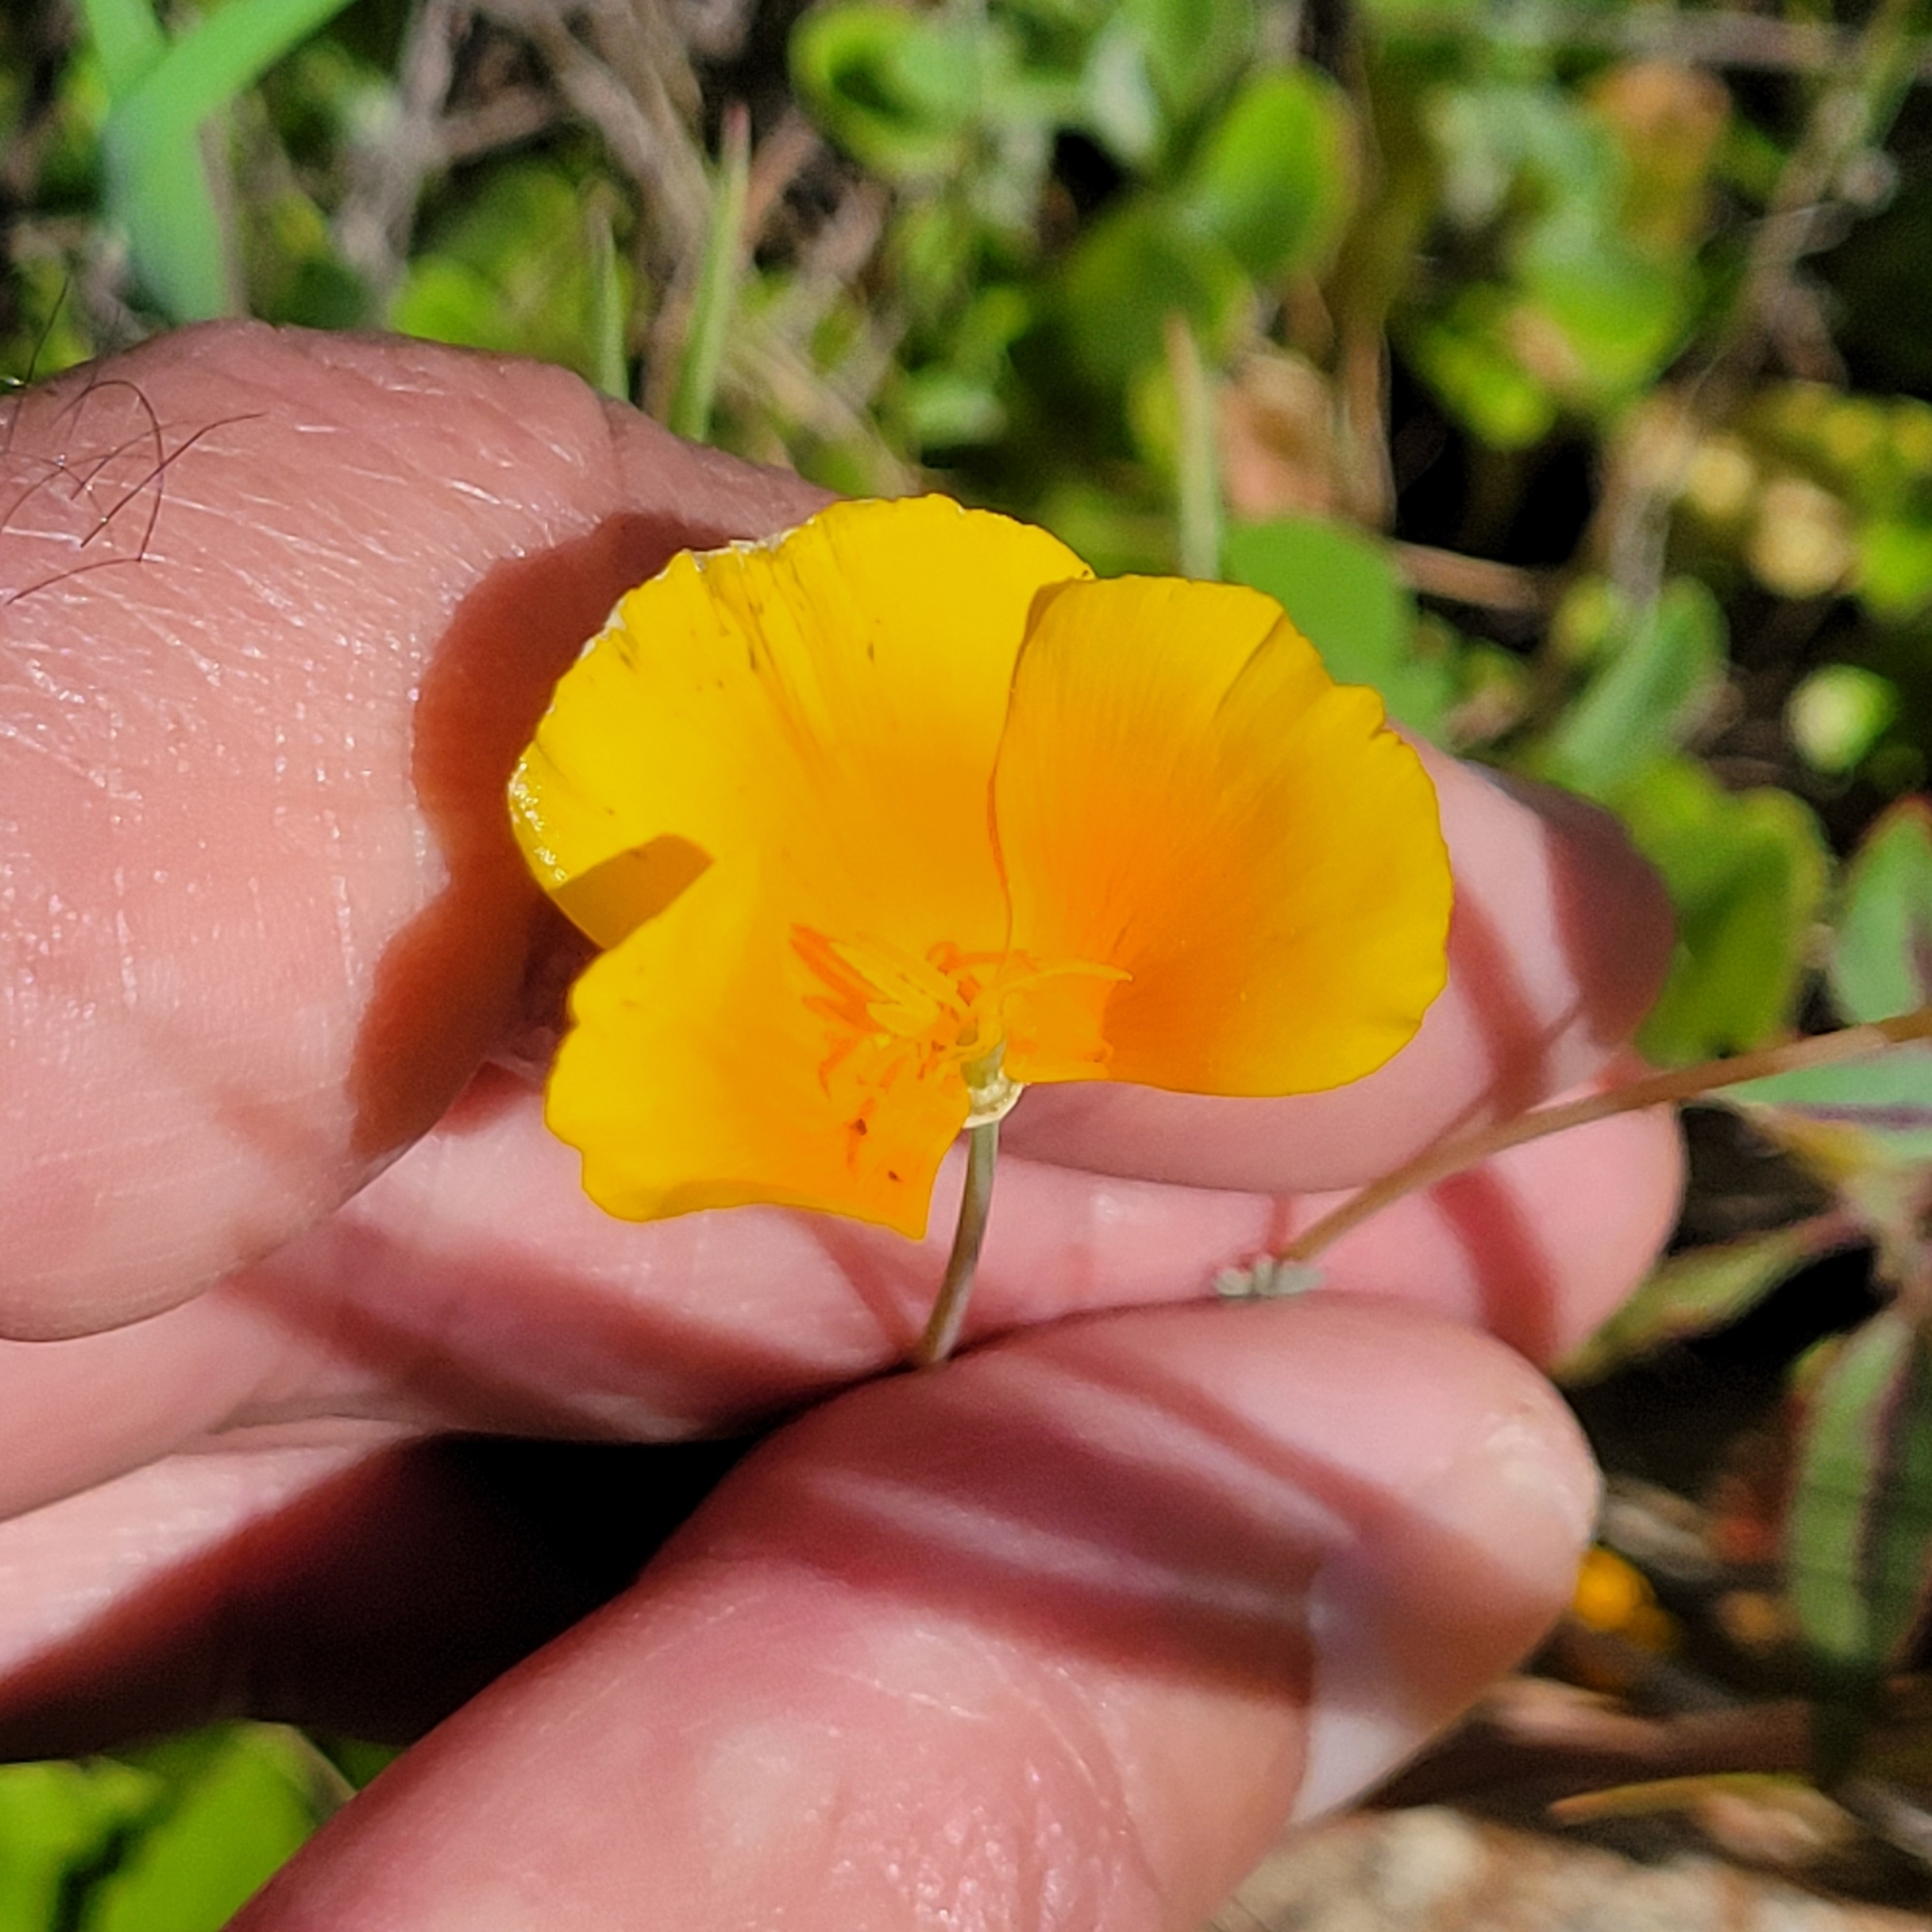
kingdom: Plantae
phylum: Tracheophyta
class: Magnoliopsida
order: Ranunculales
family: Papaveraceae
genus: Eschscholzia
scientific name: Eschscholzia caespitosa
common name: Tufted california-poppy
